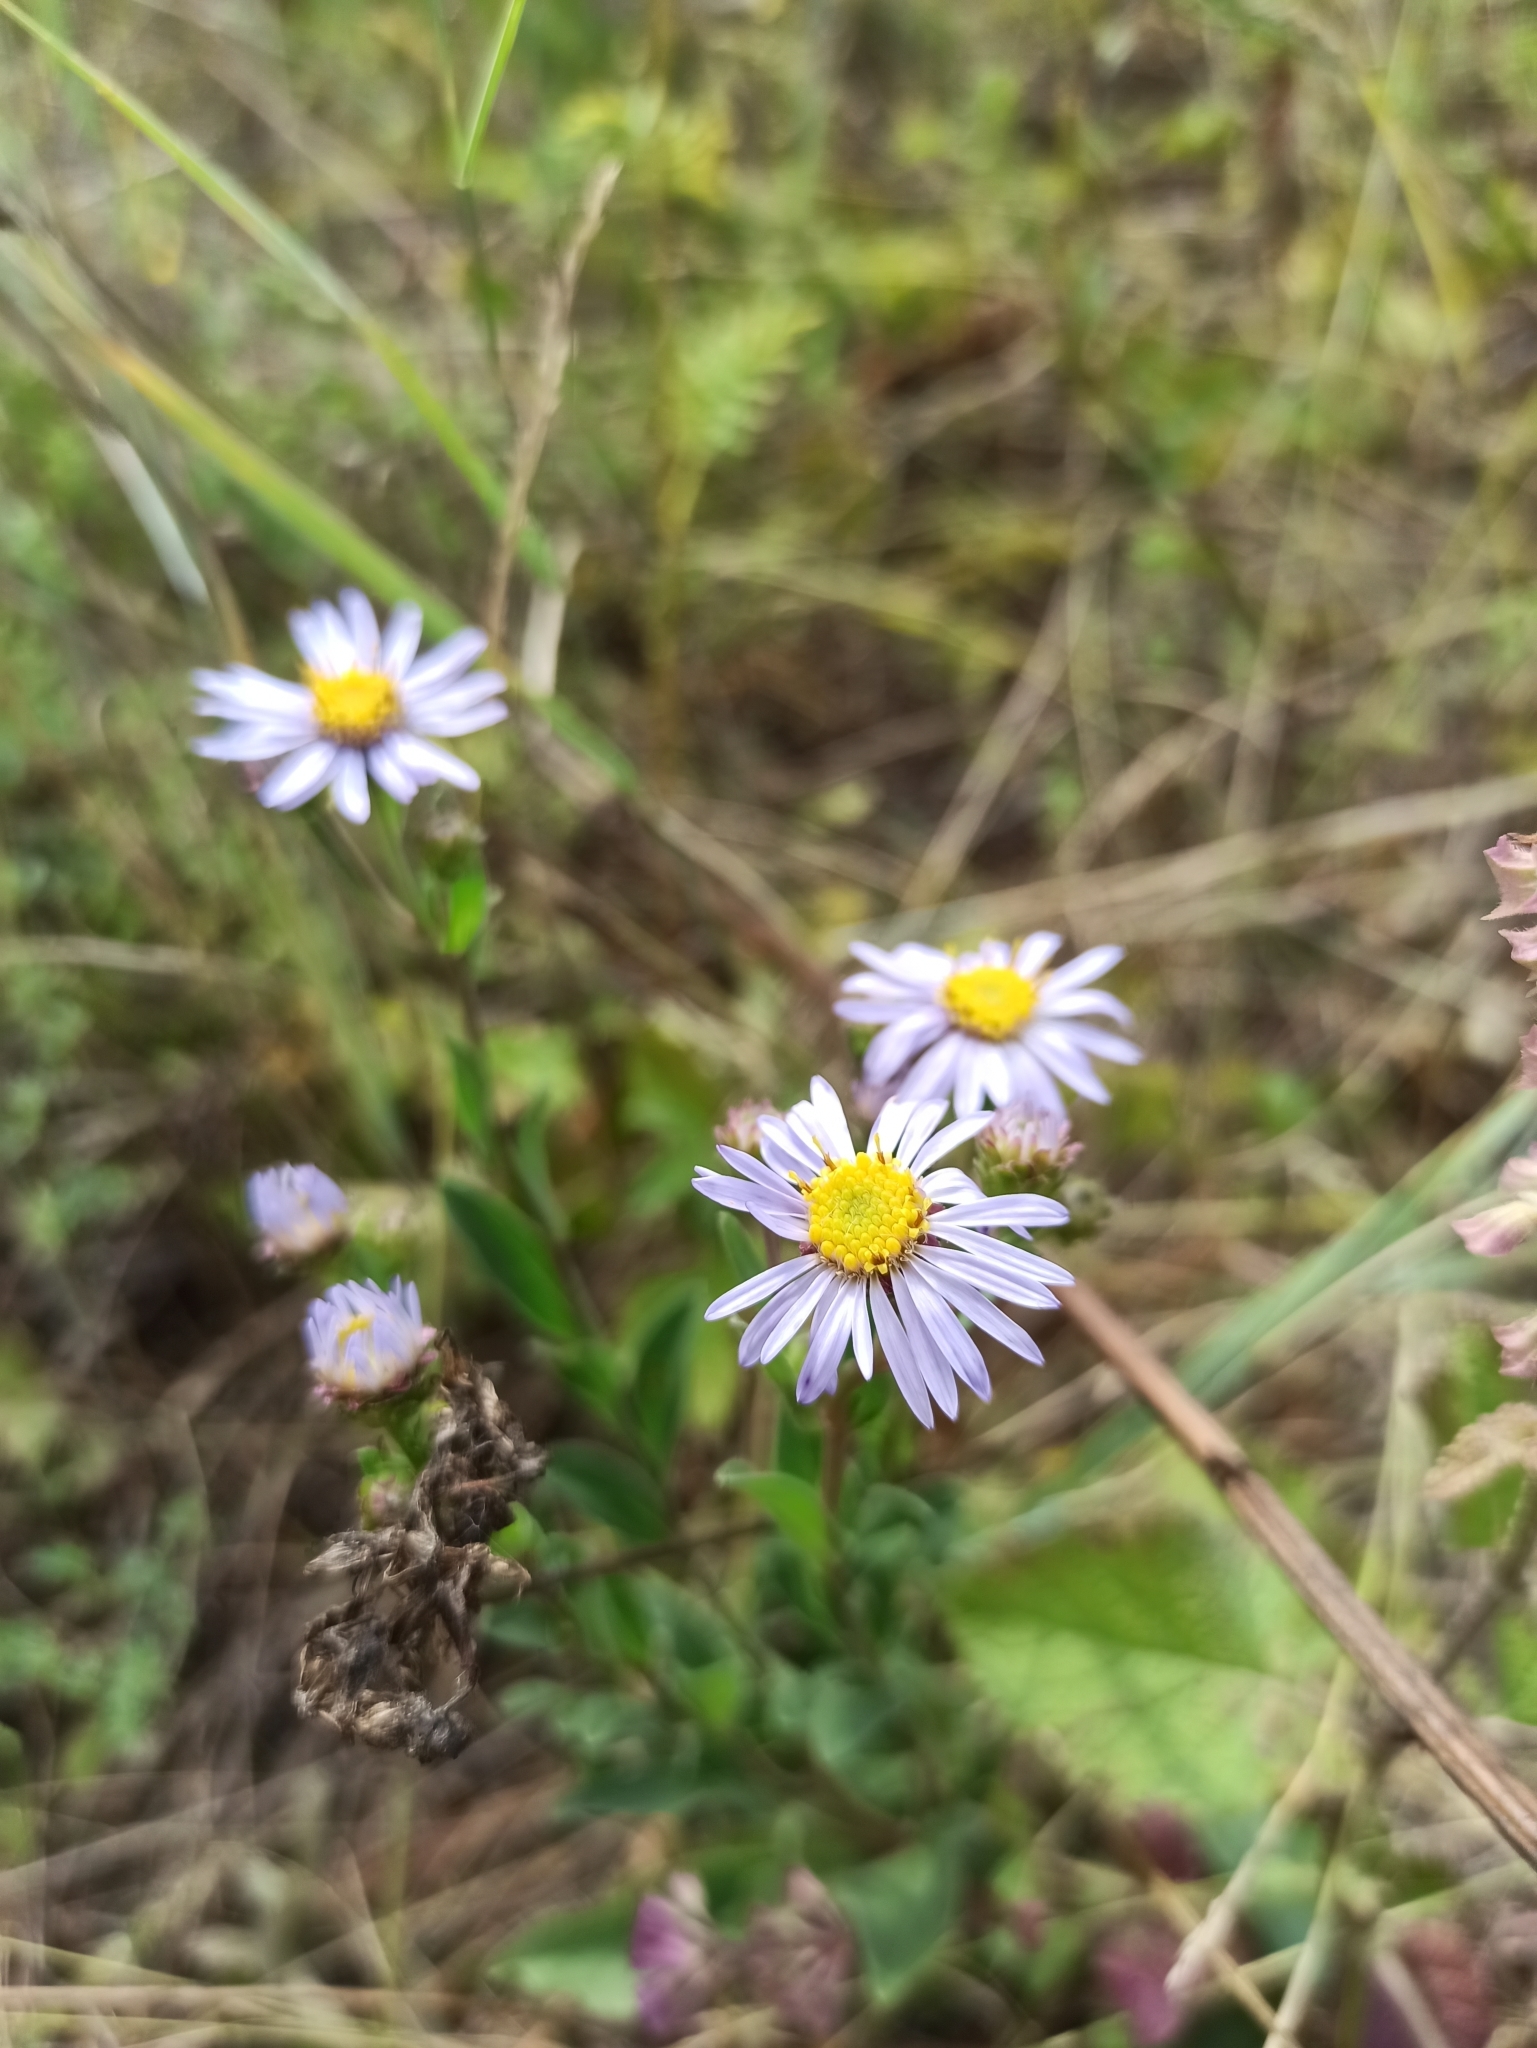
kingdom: Plantae
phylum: Tracheophyta
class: Magnoliopsida
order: Asterales
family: Asteraceae
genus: Aster
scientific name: Aster amellus
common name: European michaelmas daisy
